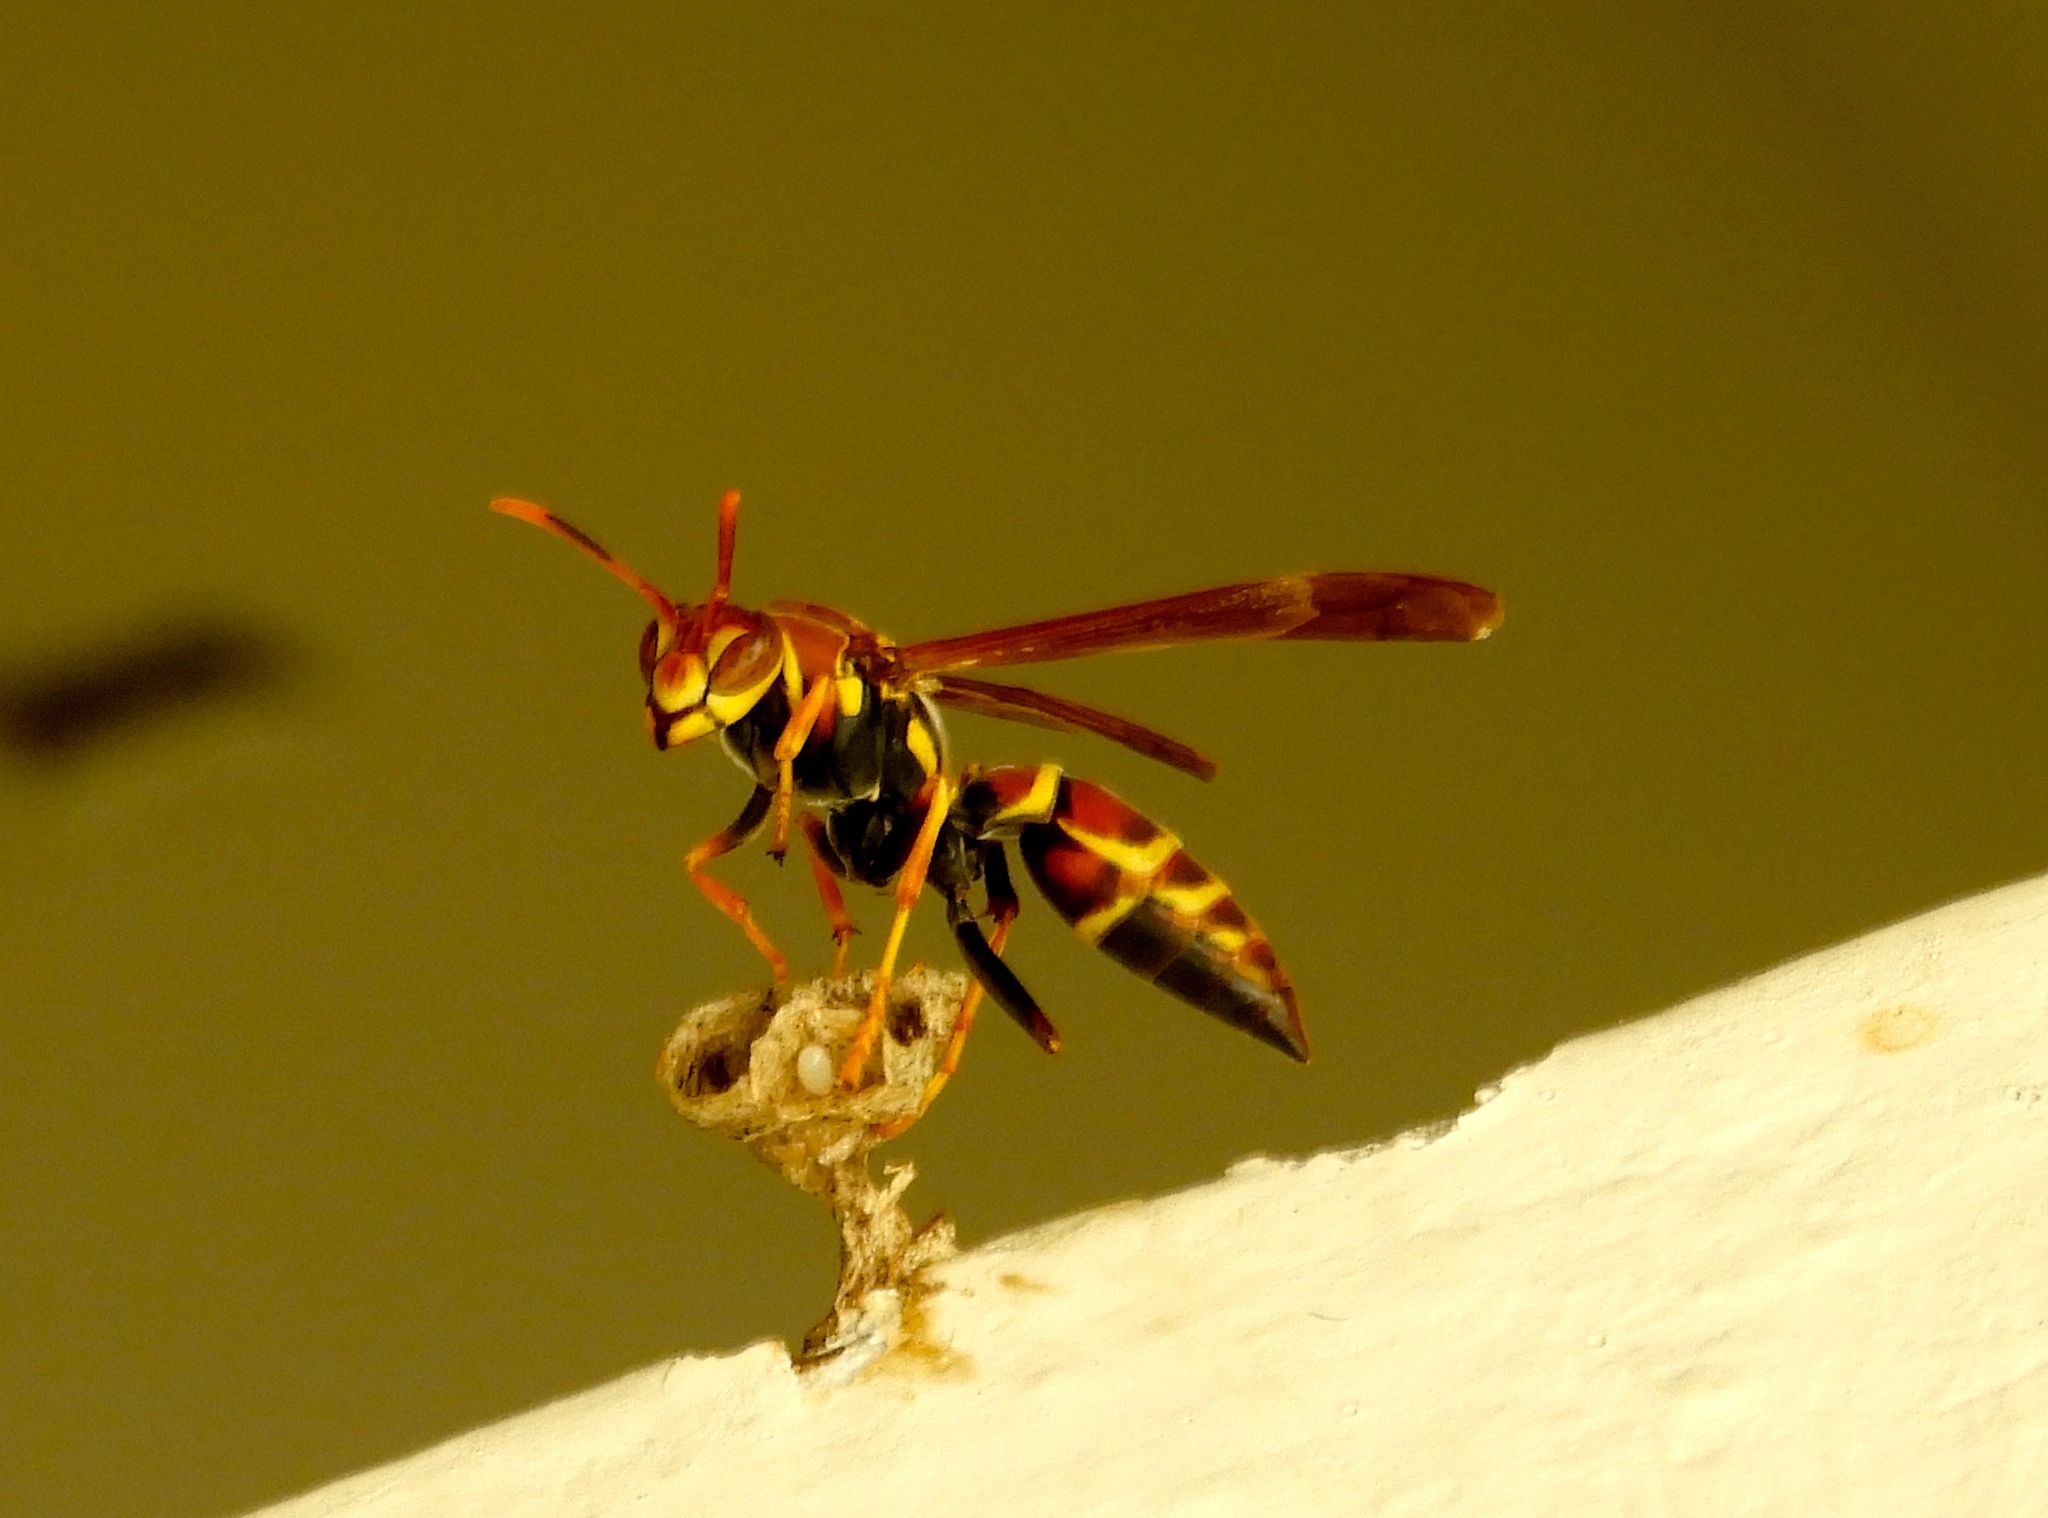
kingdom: Animalia
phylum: Arthropoda
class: Insecta
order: Hymenoptera
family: Eumenidae
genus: Polistes
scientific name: Polistes instabilis
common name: Unstable paper wasp
